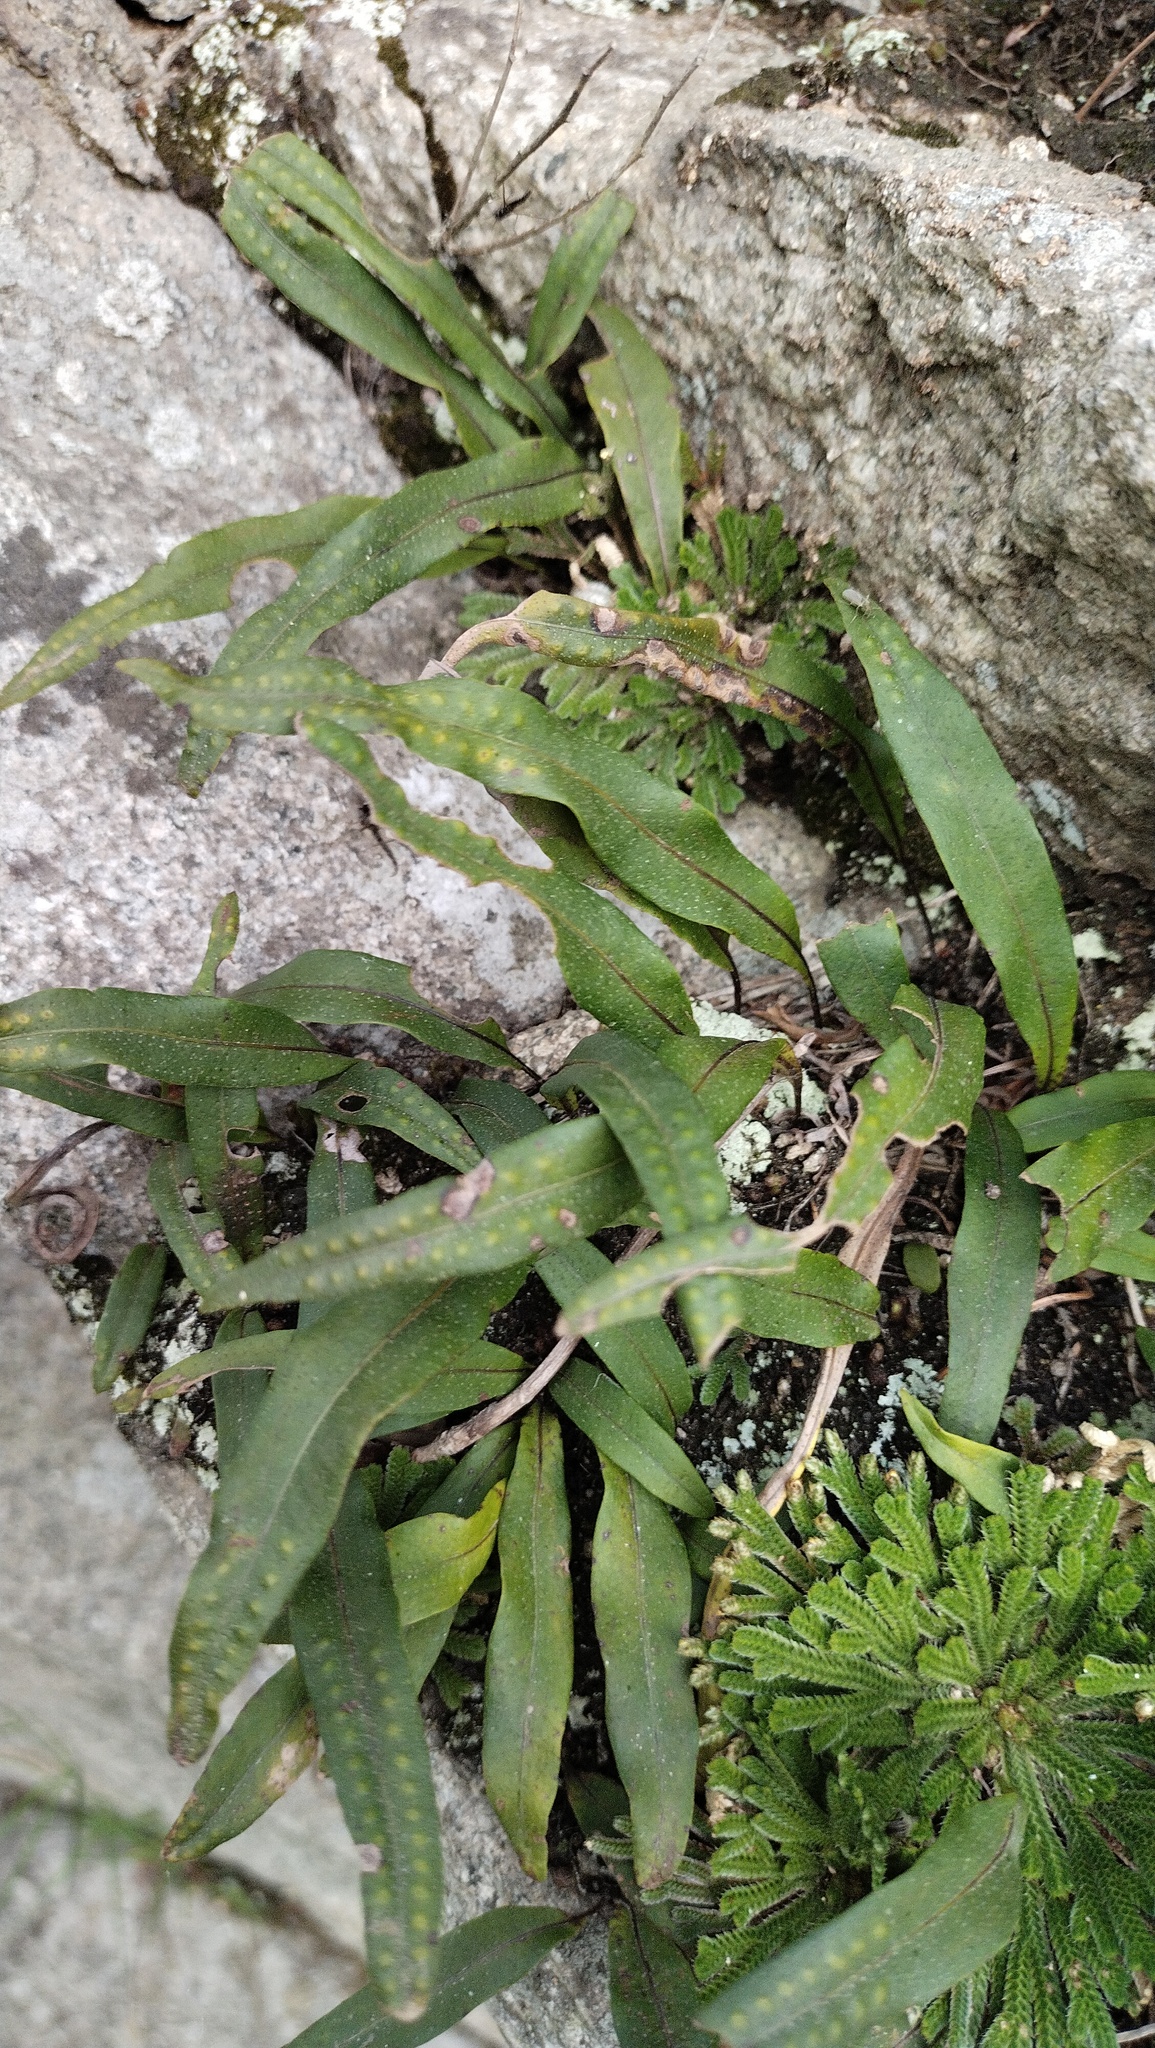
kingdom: Plantae
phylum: Tracheophyta
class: Polypodiopsida
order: Polypodiales
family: Polypodiaceae
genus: Lepisorus
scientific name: Lepisorus ussuriensis
